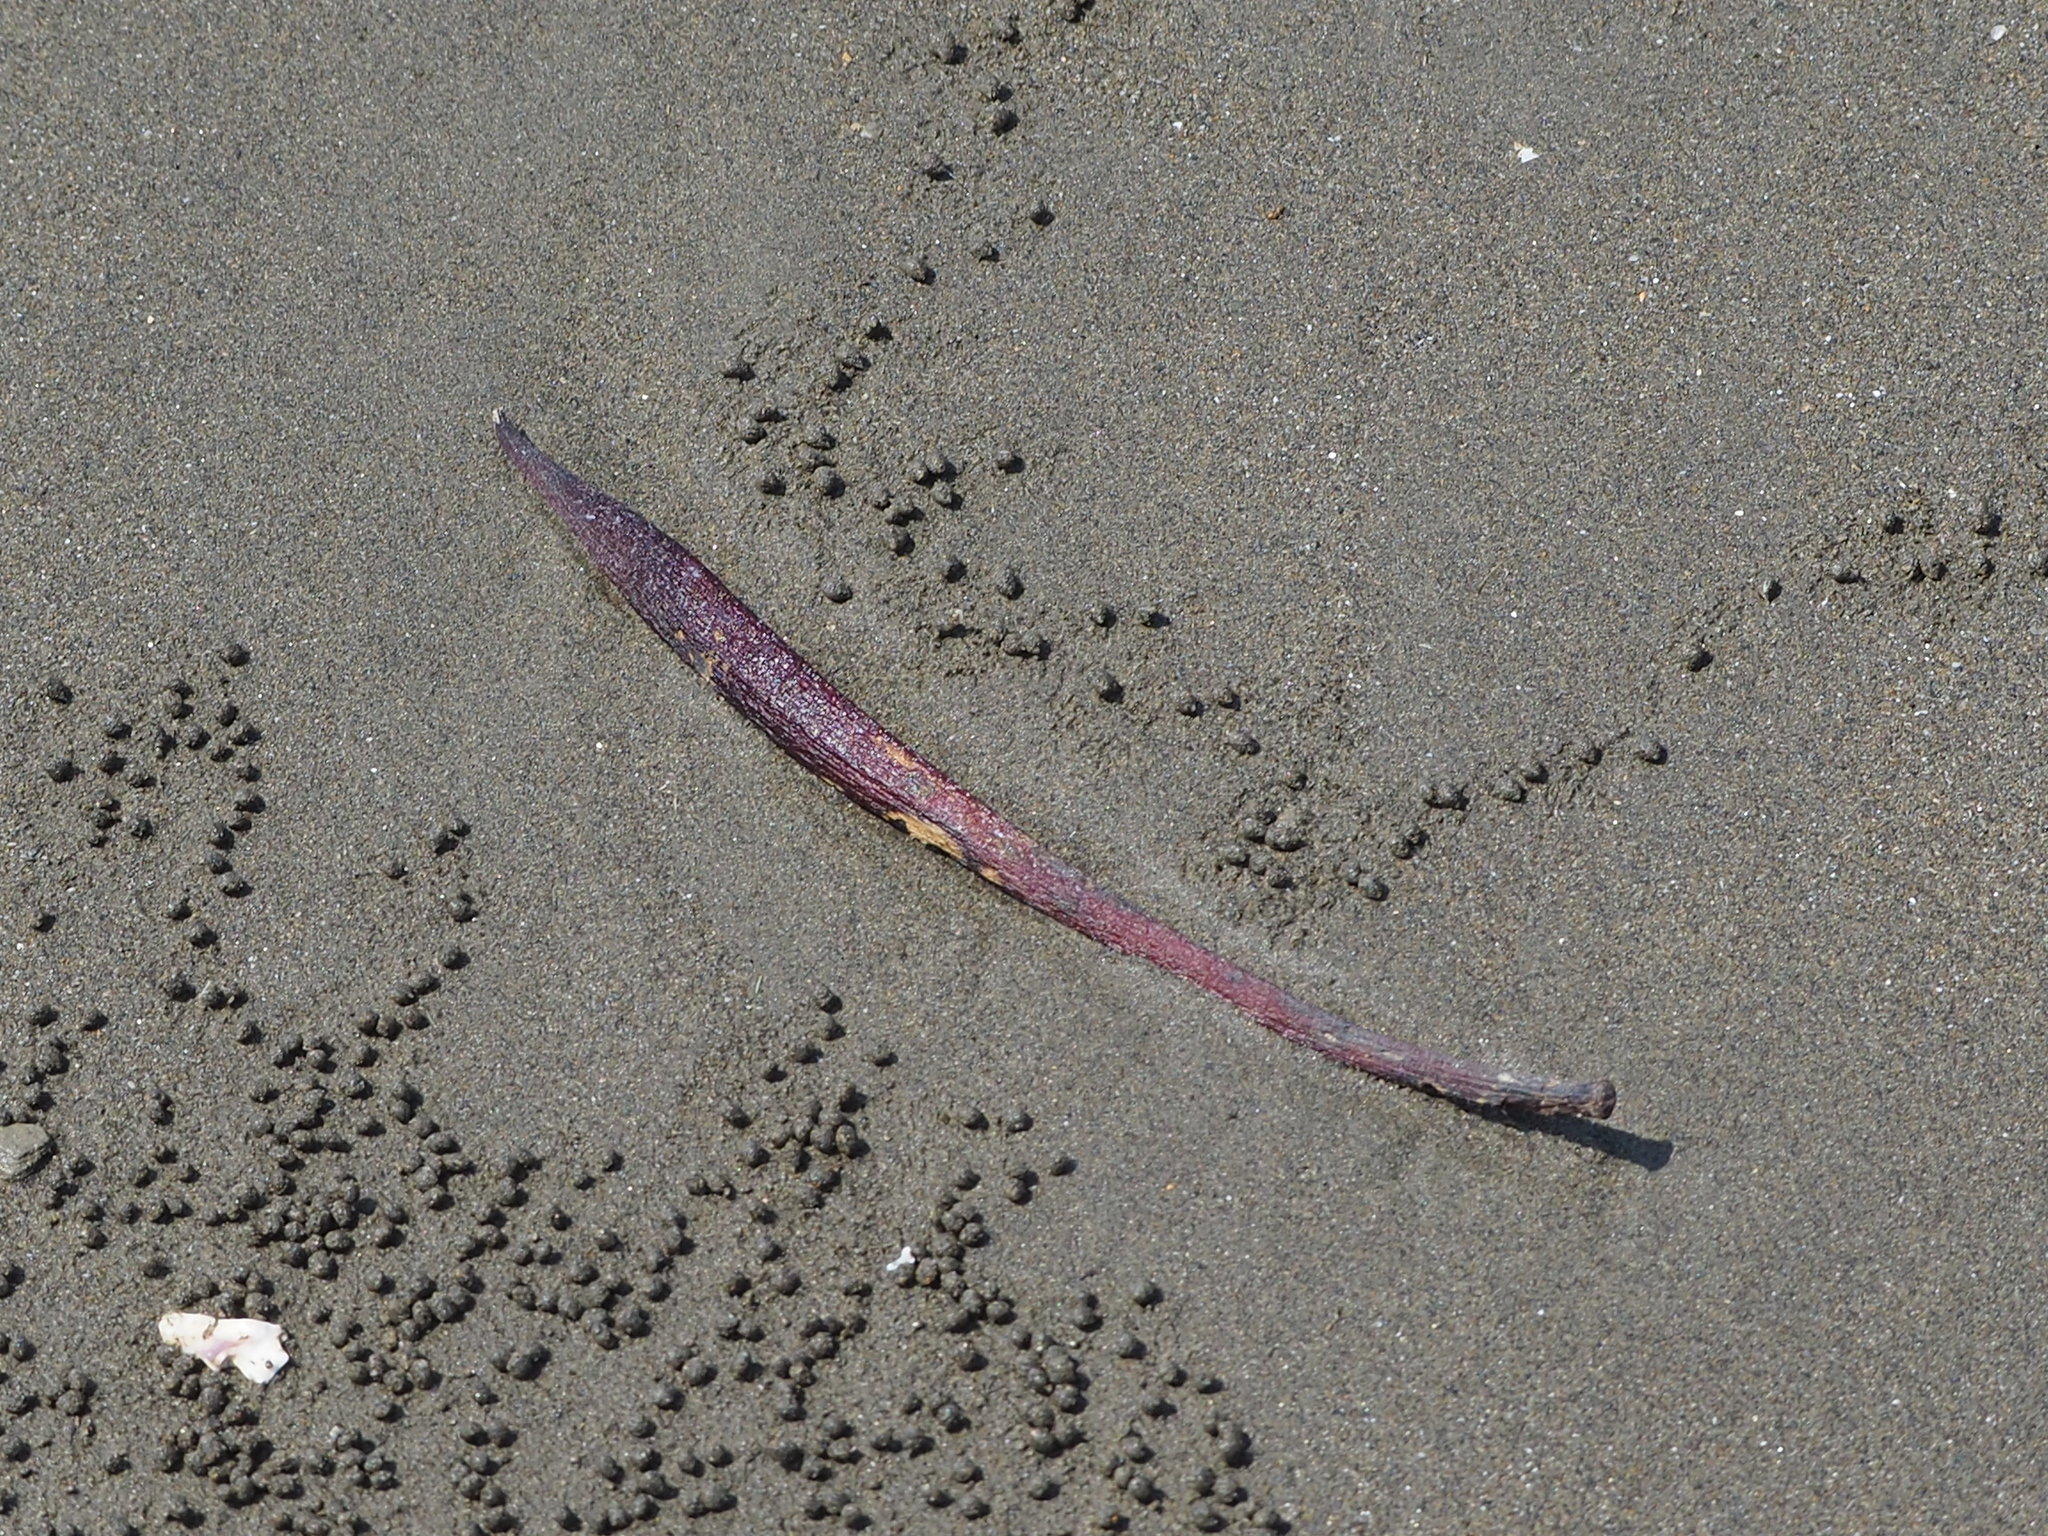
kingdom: Plantae
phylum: Tracheophyta
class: Magnoliopsida
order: Malpighiales
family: Rhizophoraceae
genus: Kandelia
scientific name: Kandelia obovata
